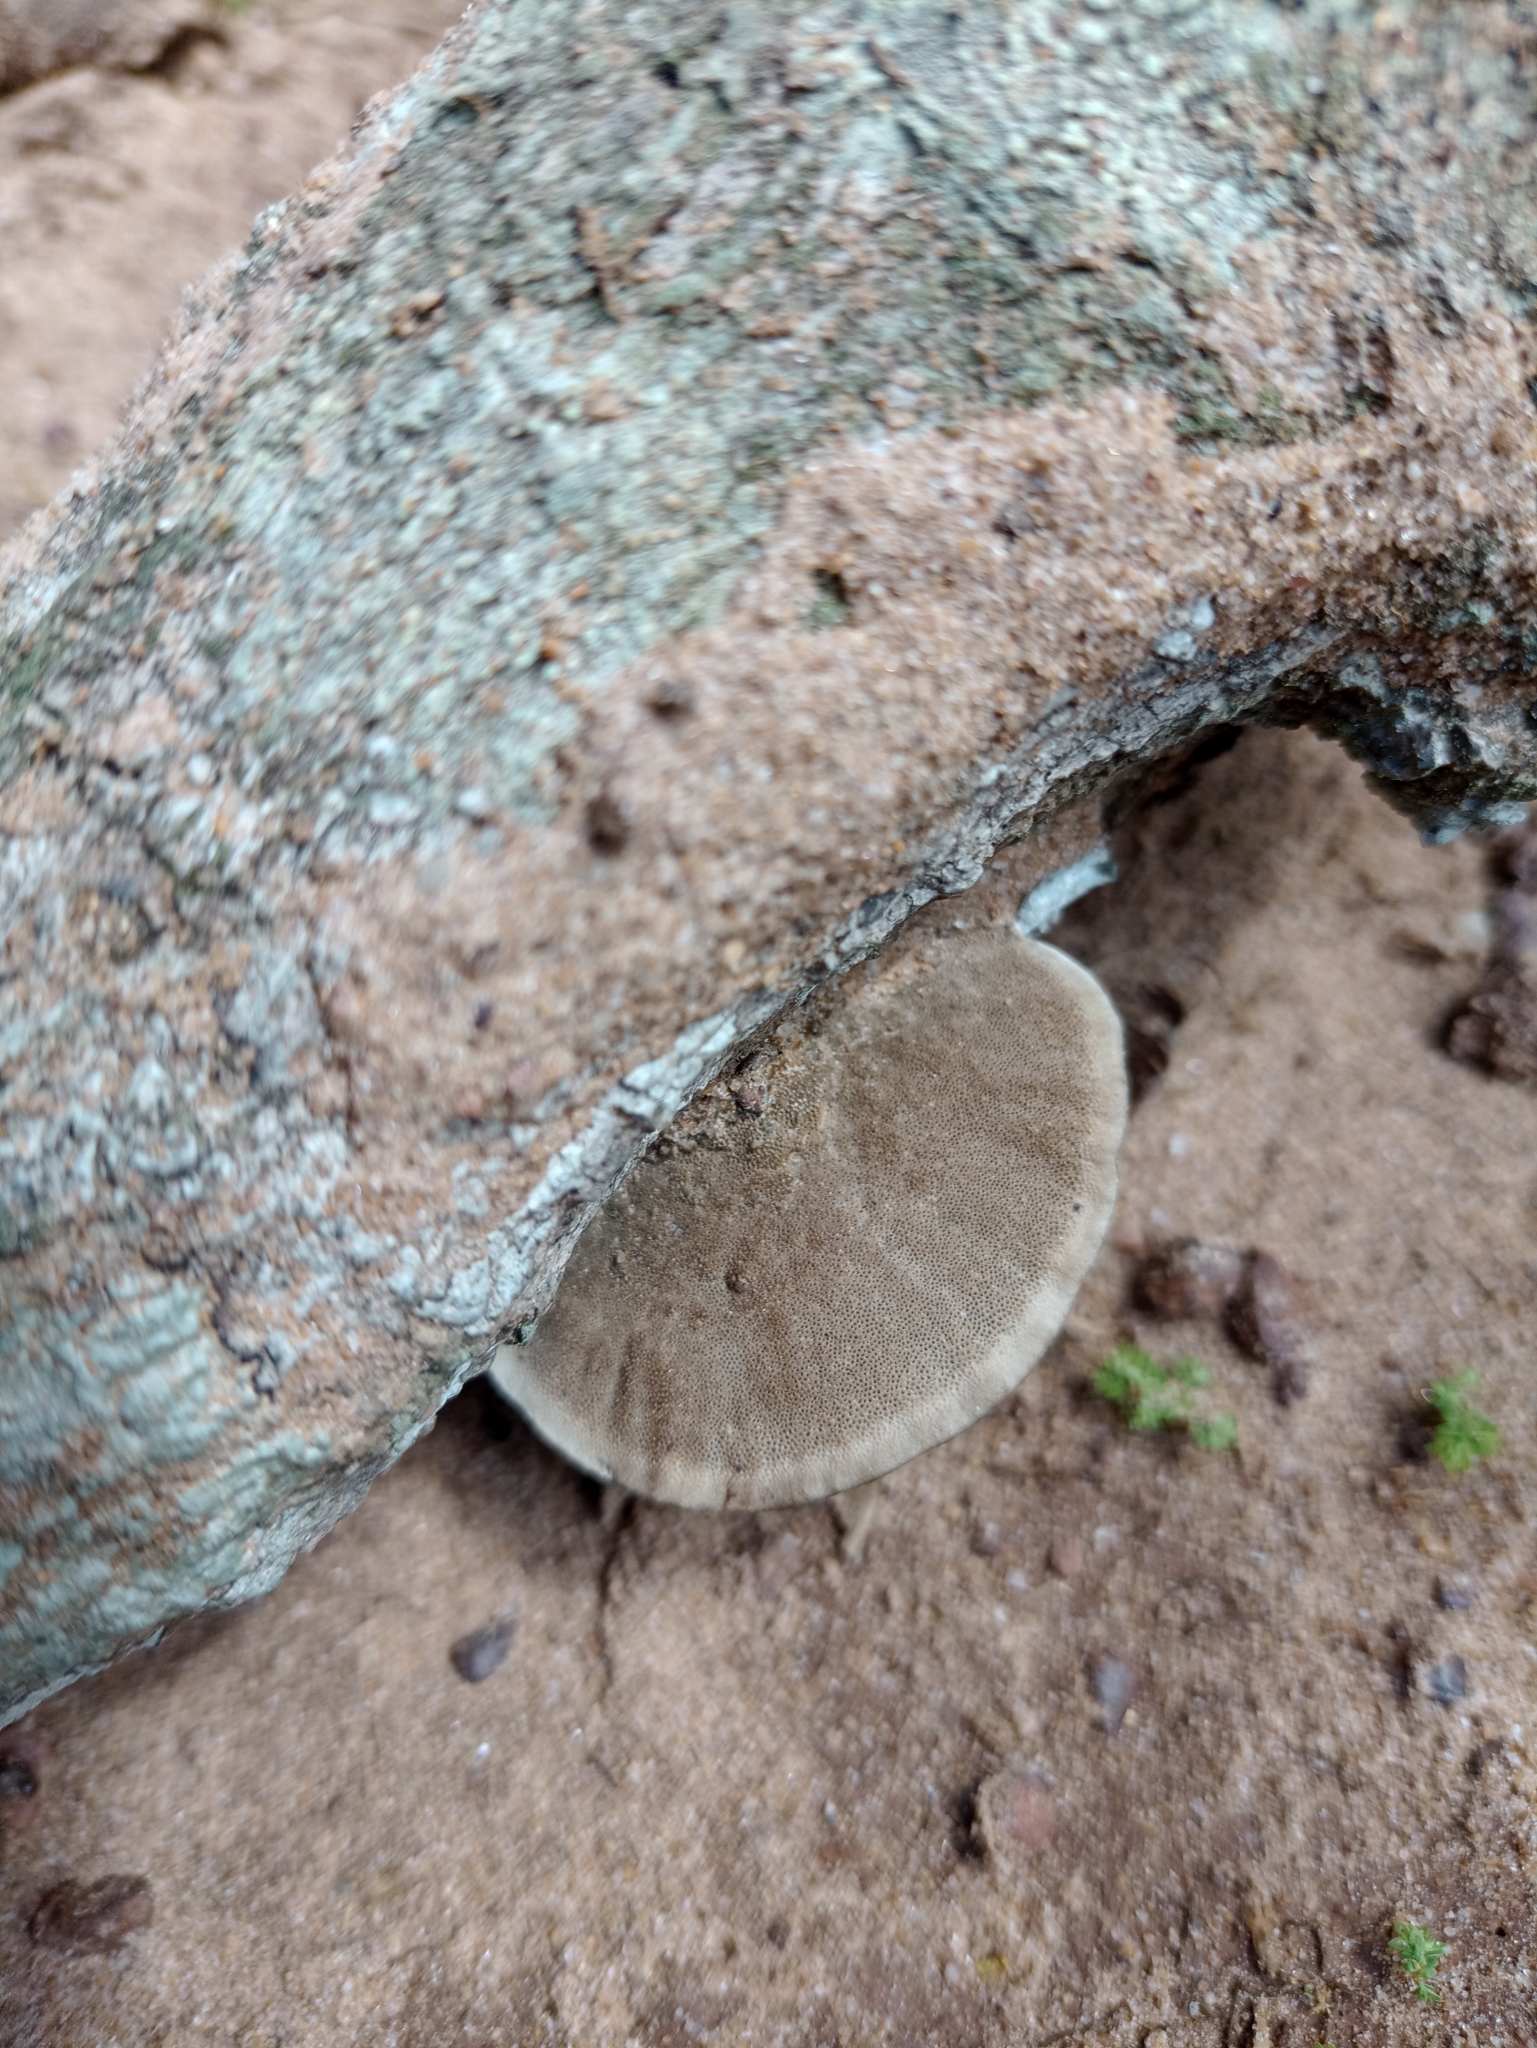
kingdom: Fungi
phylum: Basidiomycota
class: Agaricomycetes
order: Polyporales
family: Cerrenaceae
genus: Cerrena
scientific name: Cerrena hydnoides
